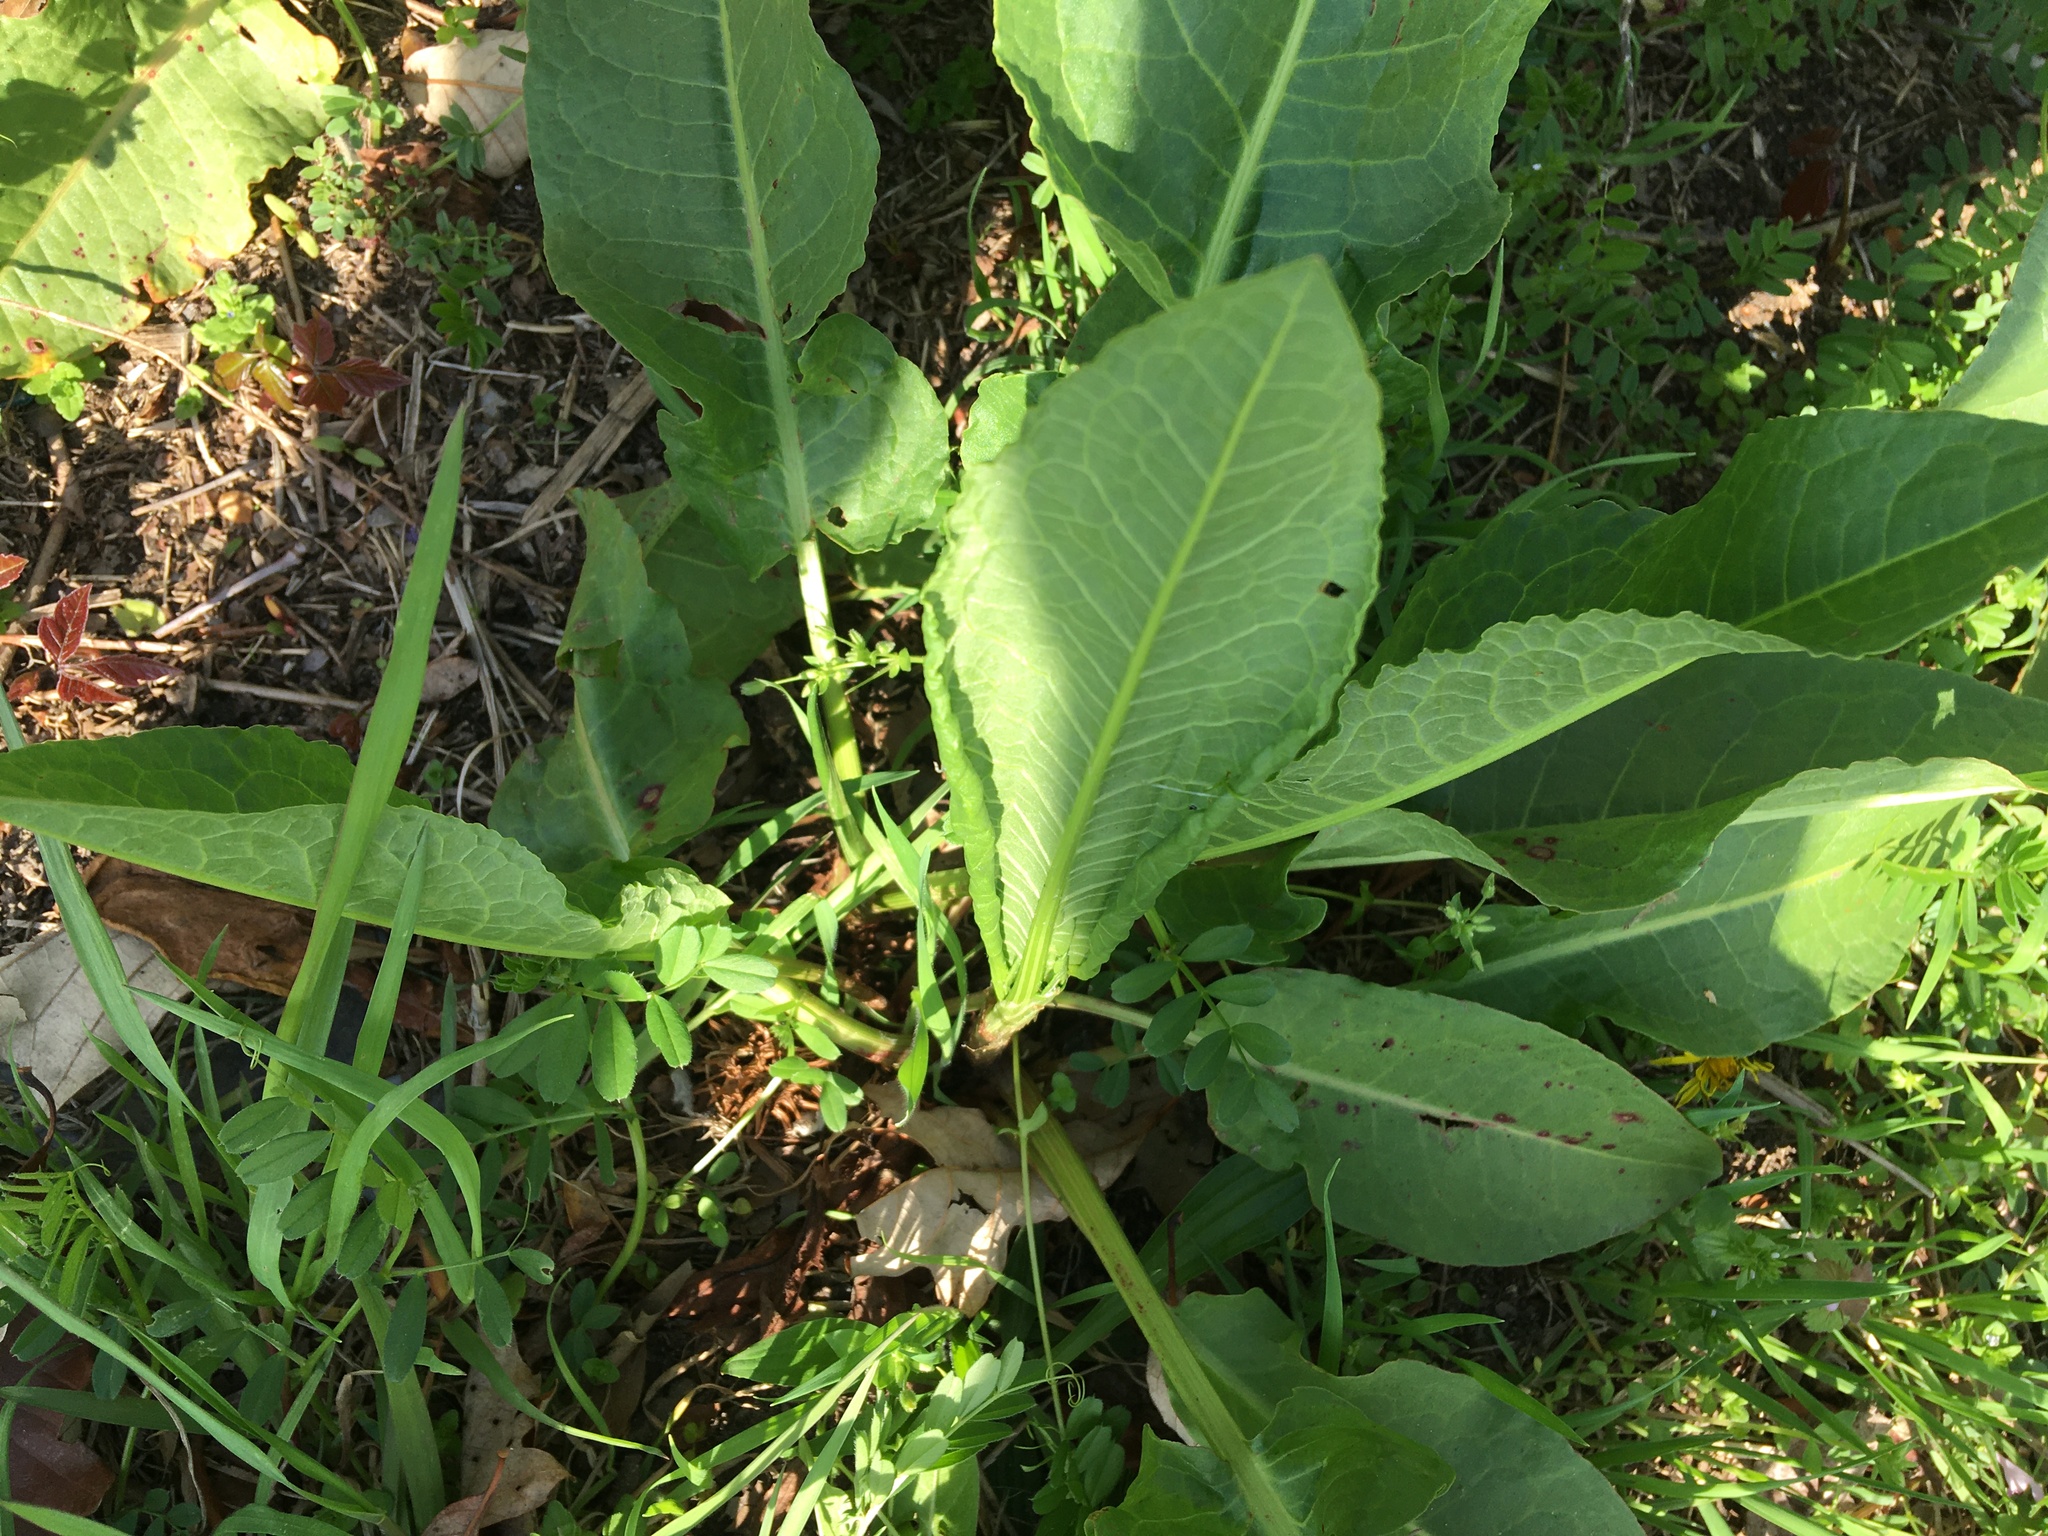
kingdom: Plantae
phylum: Tracheophyta
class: Magnoliopsida
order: Caryophyllales
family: Polygonaceae
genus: Rumex
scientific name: Rumex obtusifolius
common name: Bitter dock
